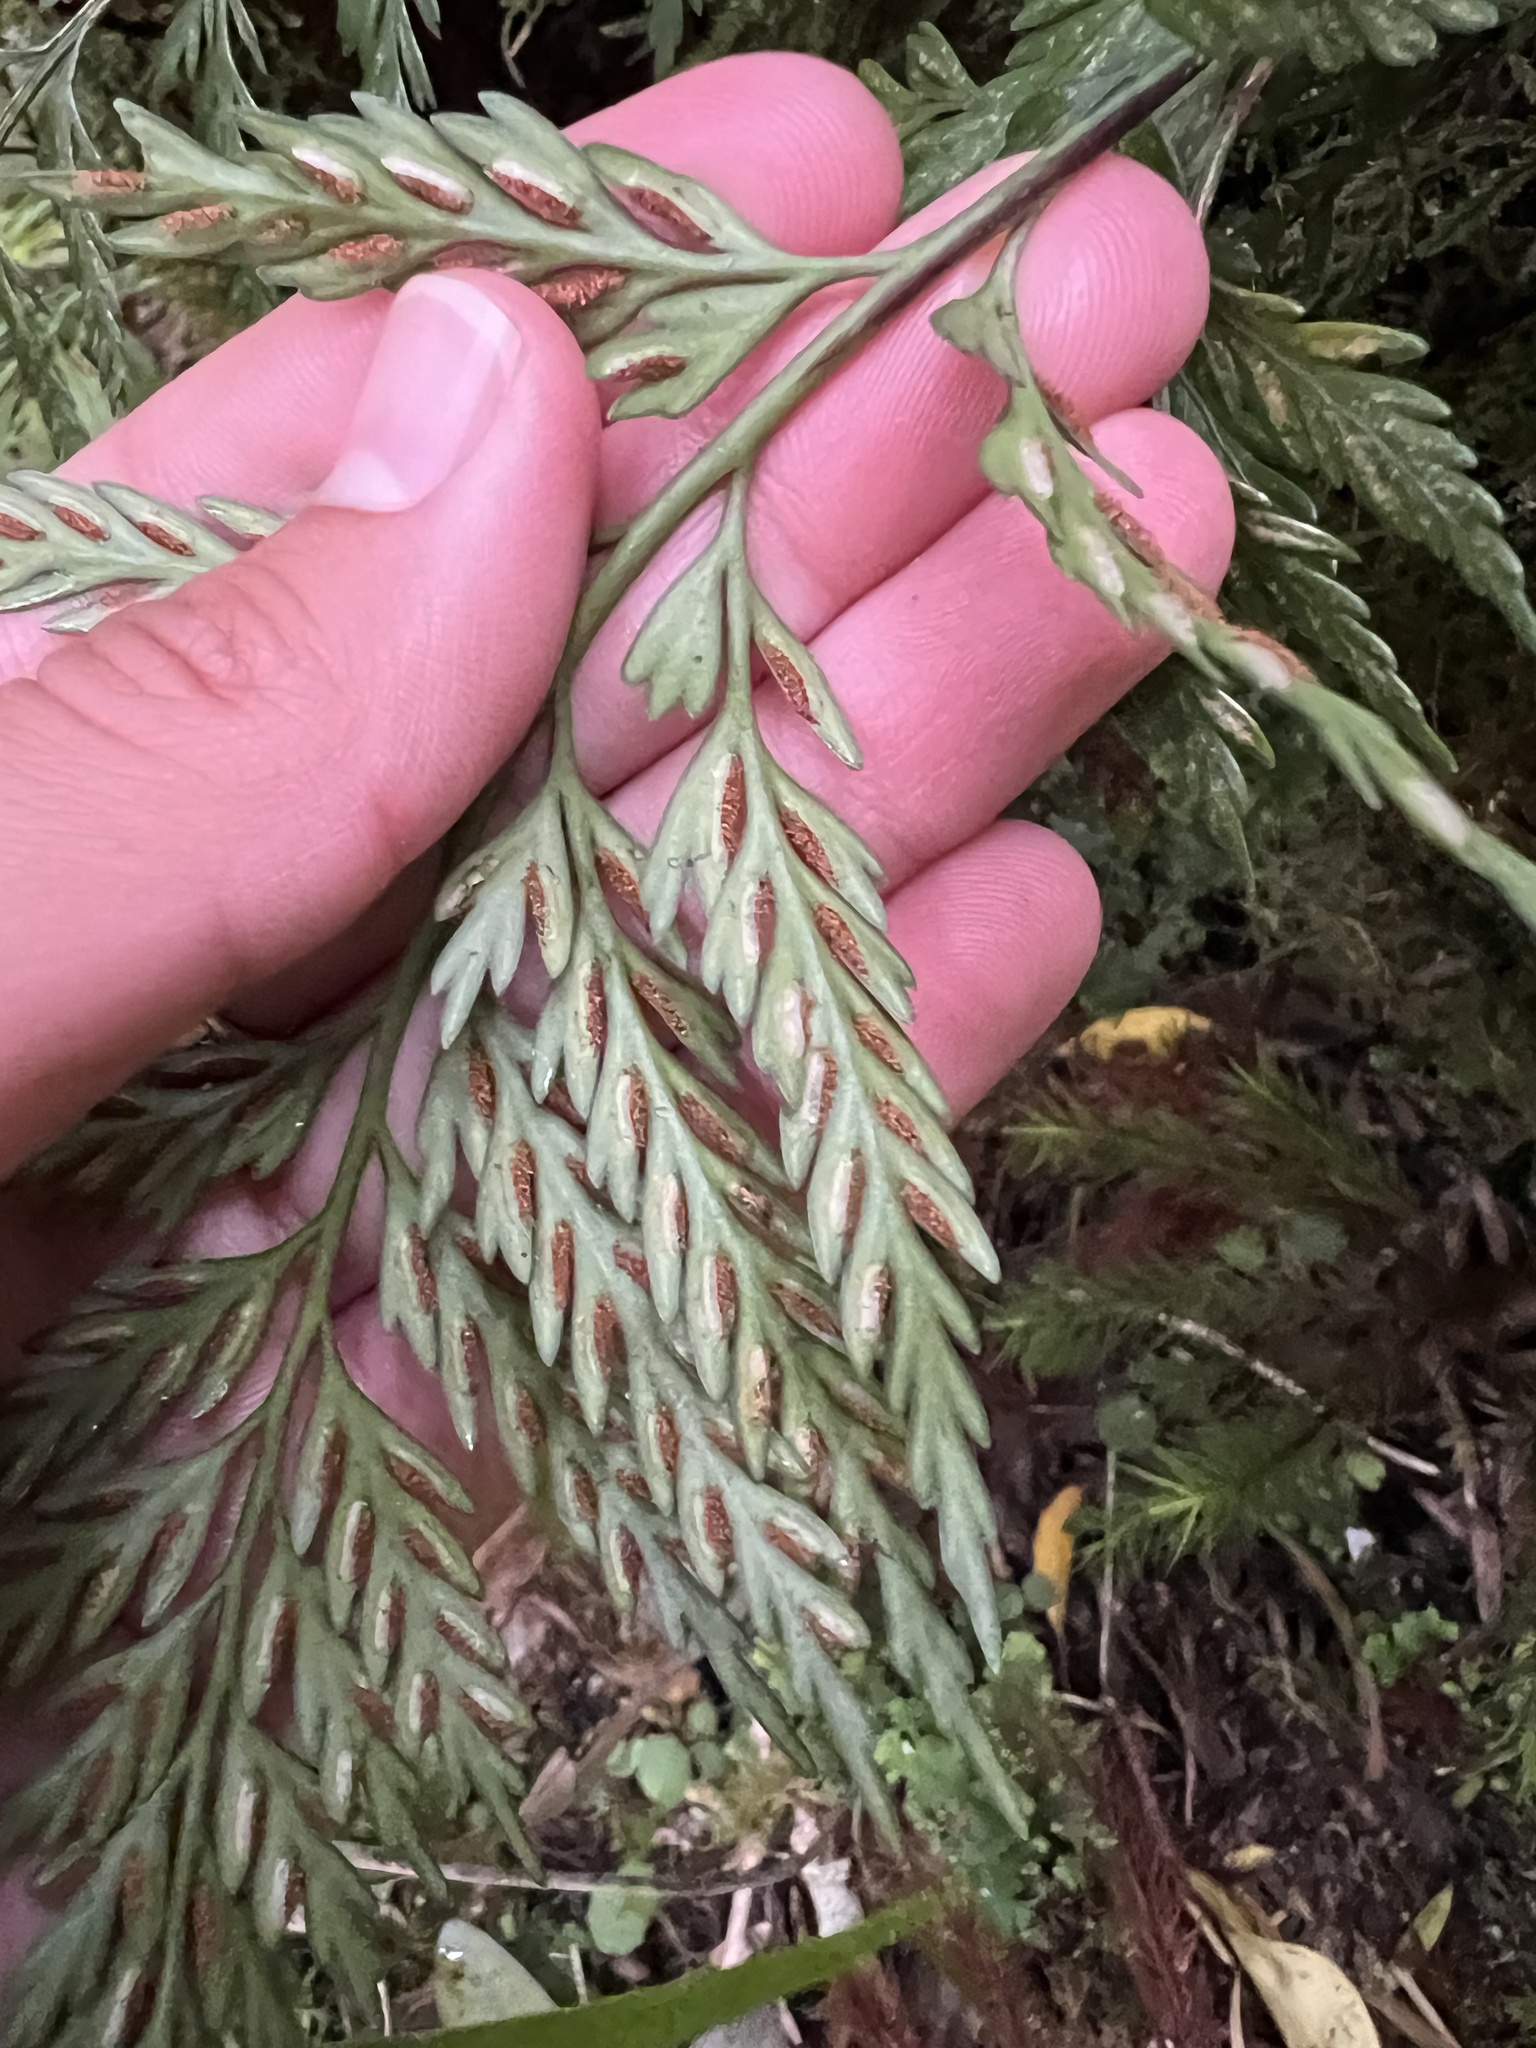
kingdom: Plantae
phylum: Tracheophyta
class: Polypodiopsida
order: Polypodiales
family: Aspleniaceae
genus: Asplenium
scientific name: Asplenium appendiculatum
